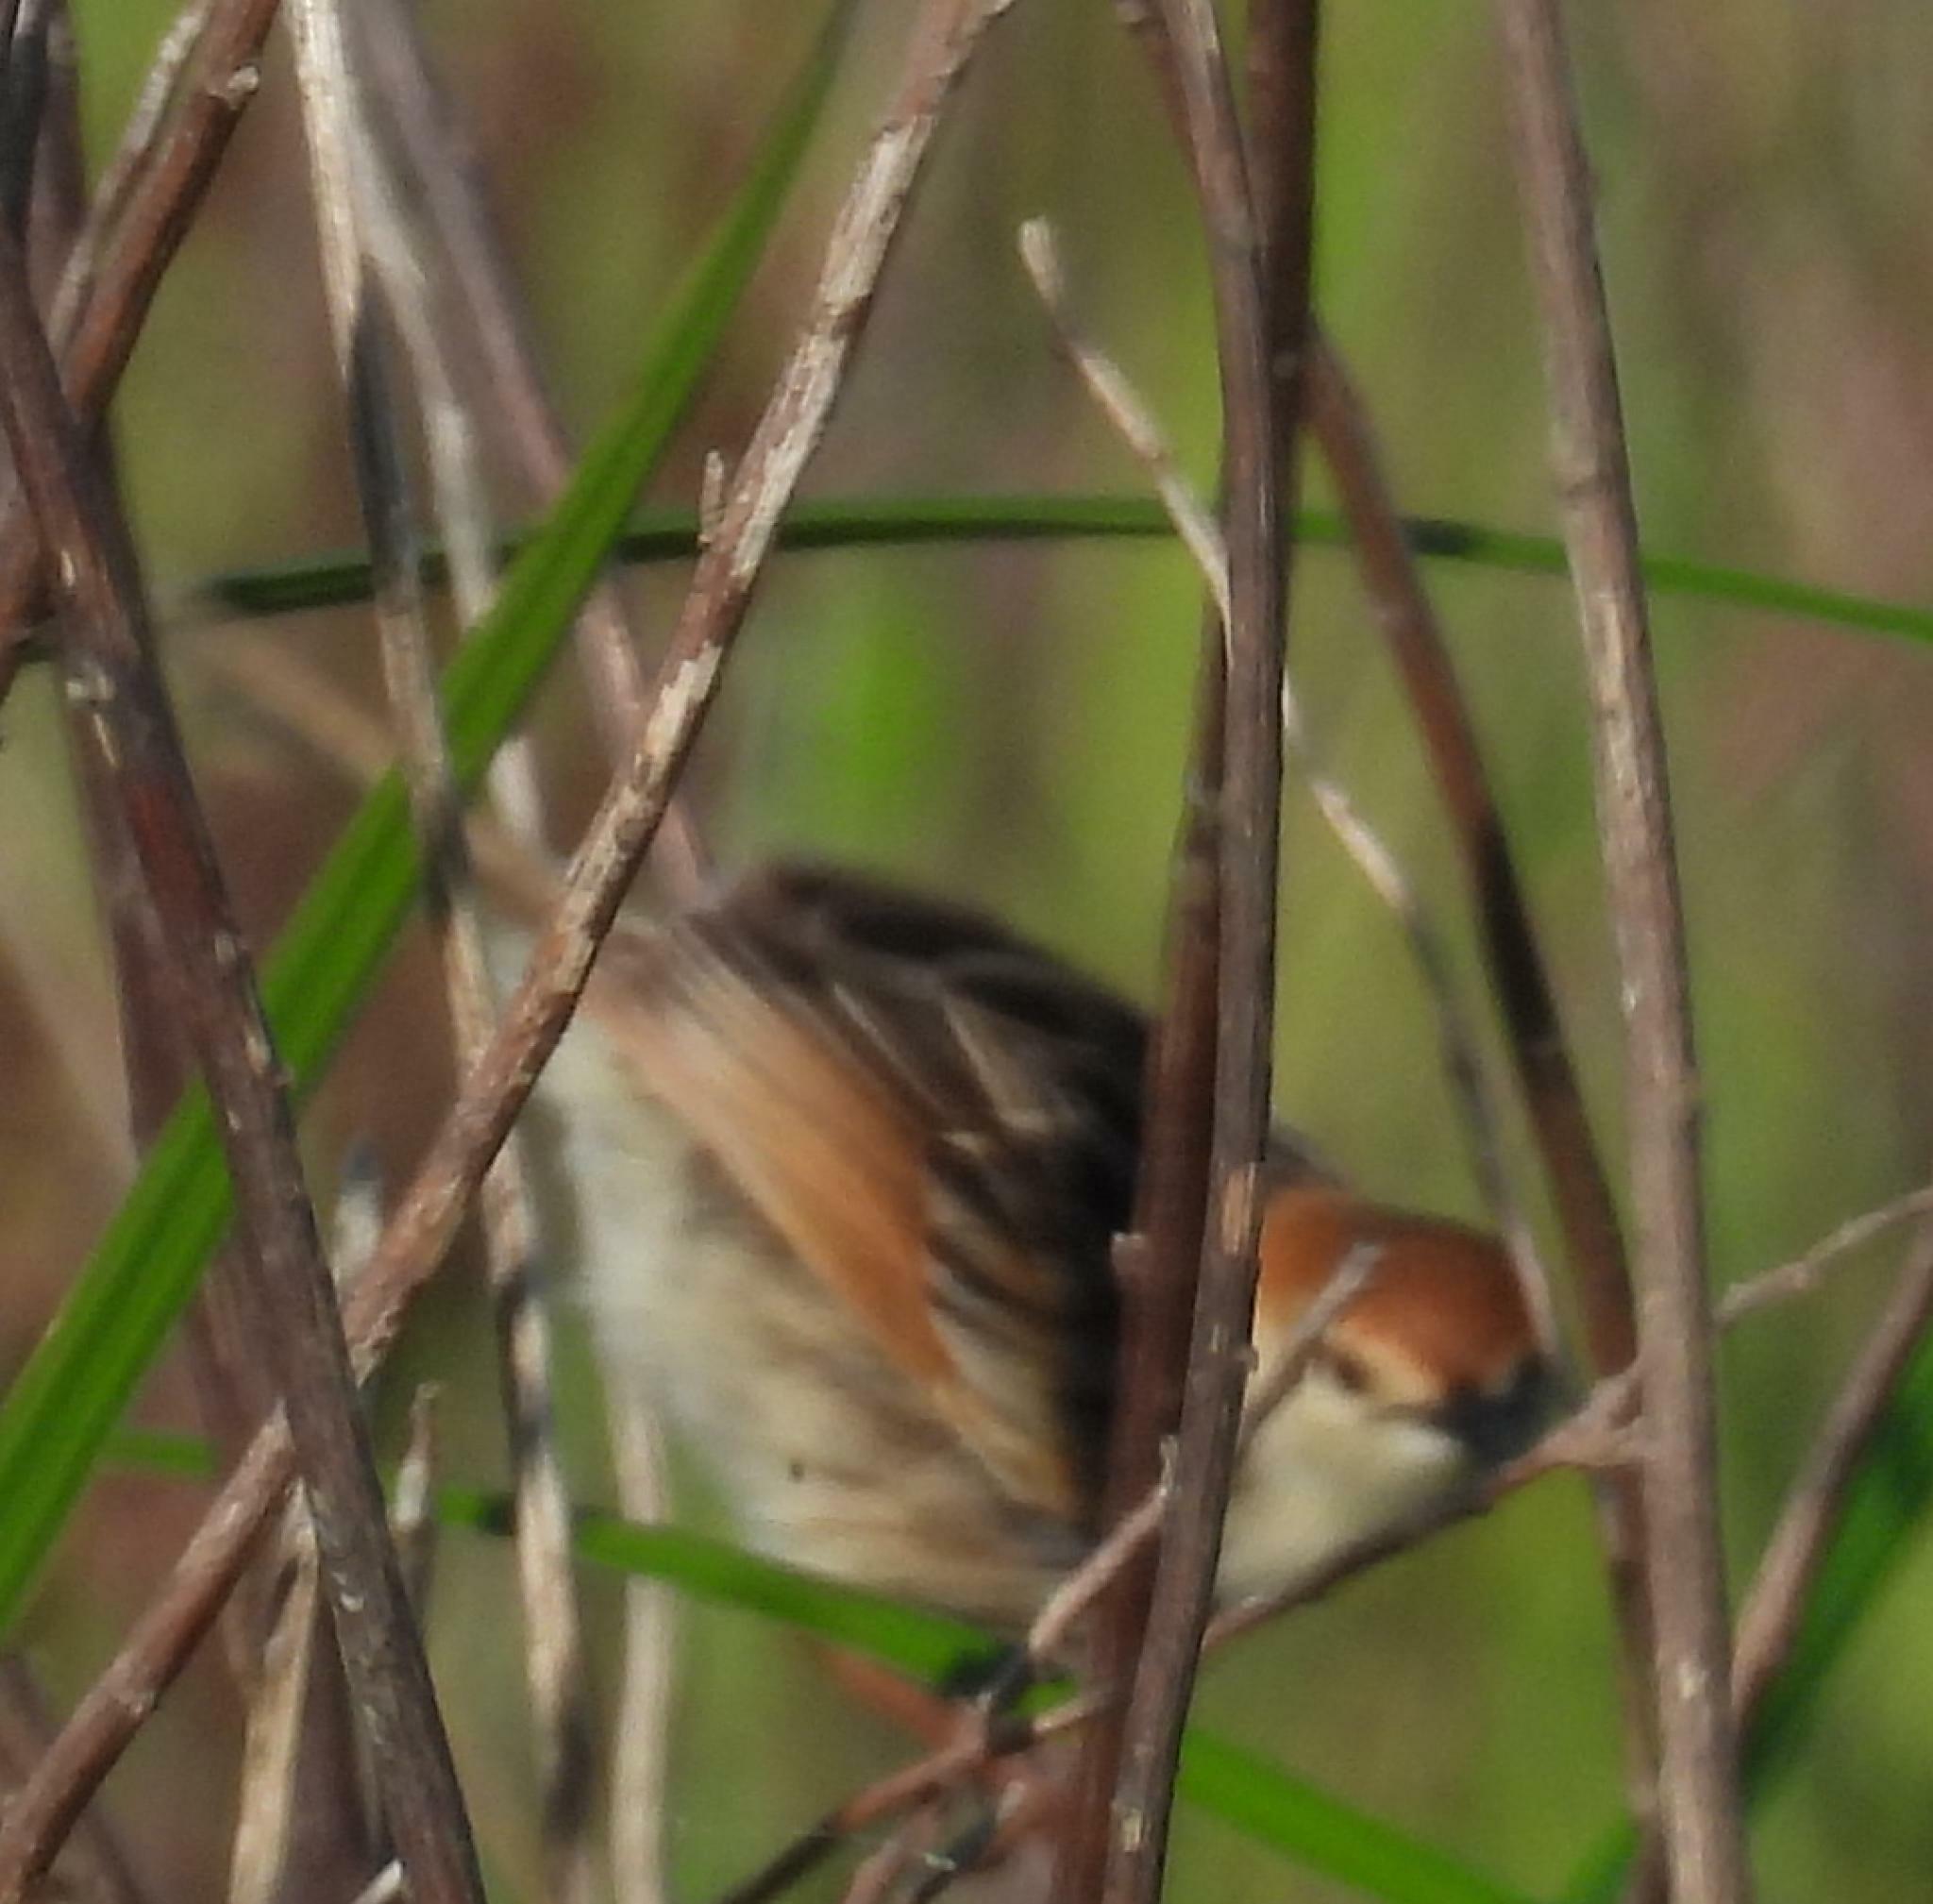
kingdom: Animalia
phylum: Chordata
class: Aves
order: Passeriformes
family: Cisticolidae
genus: Cisticola
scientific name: Cisticola tinniens
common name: Levaillant's cisticola
